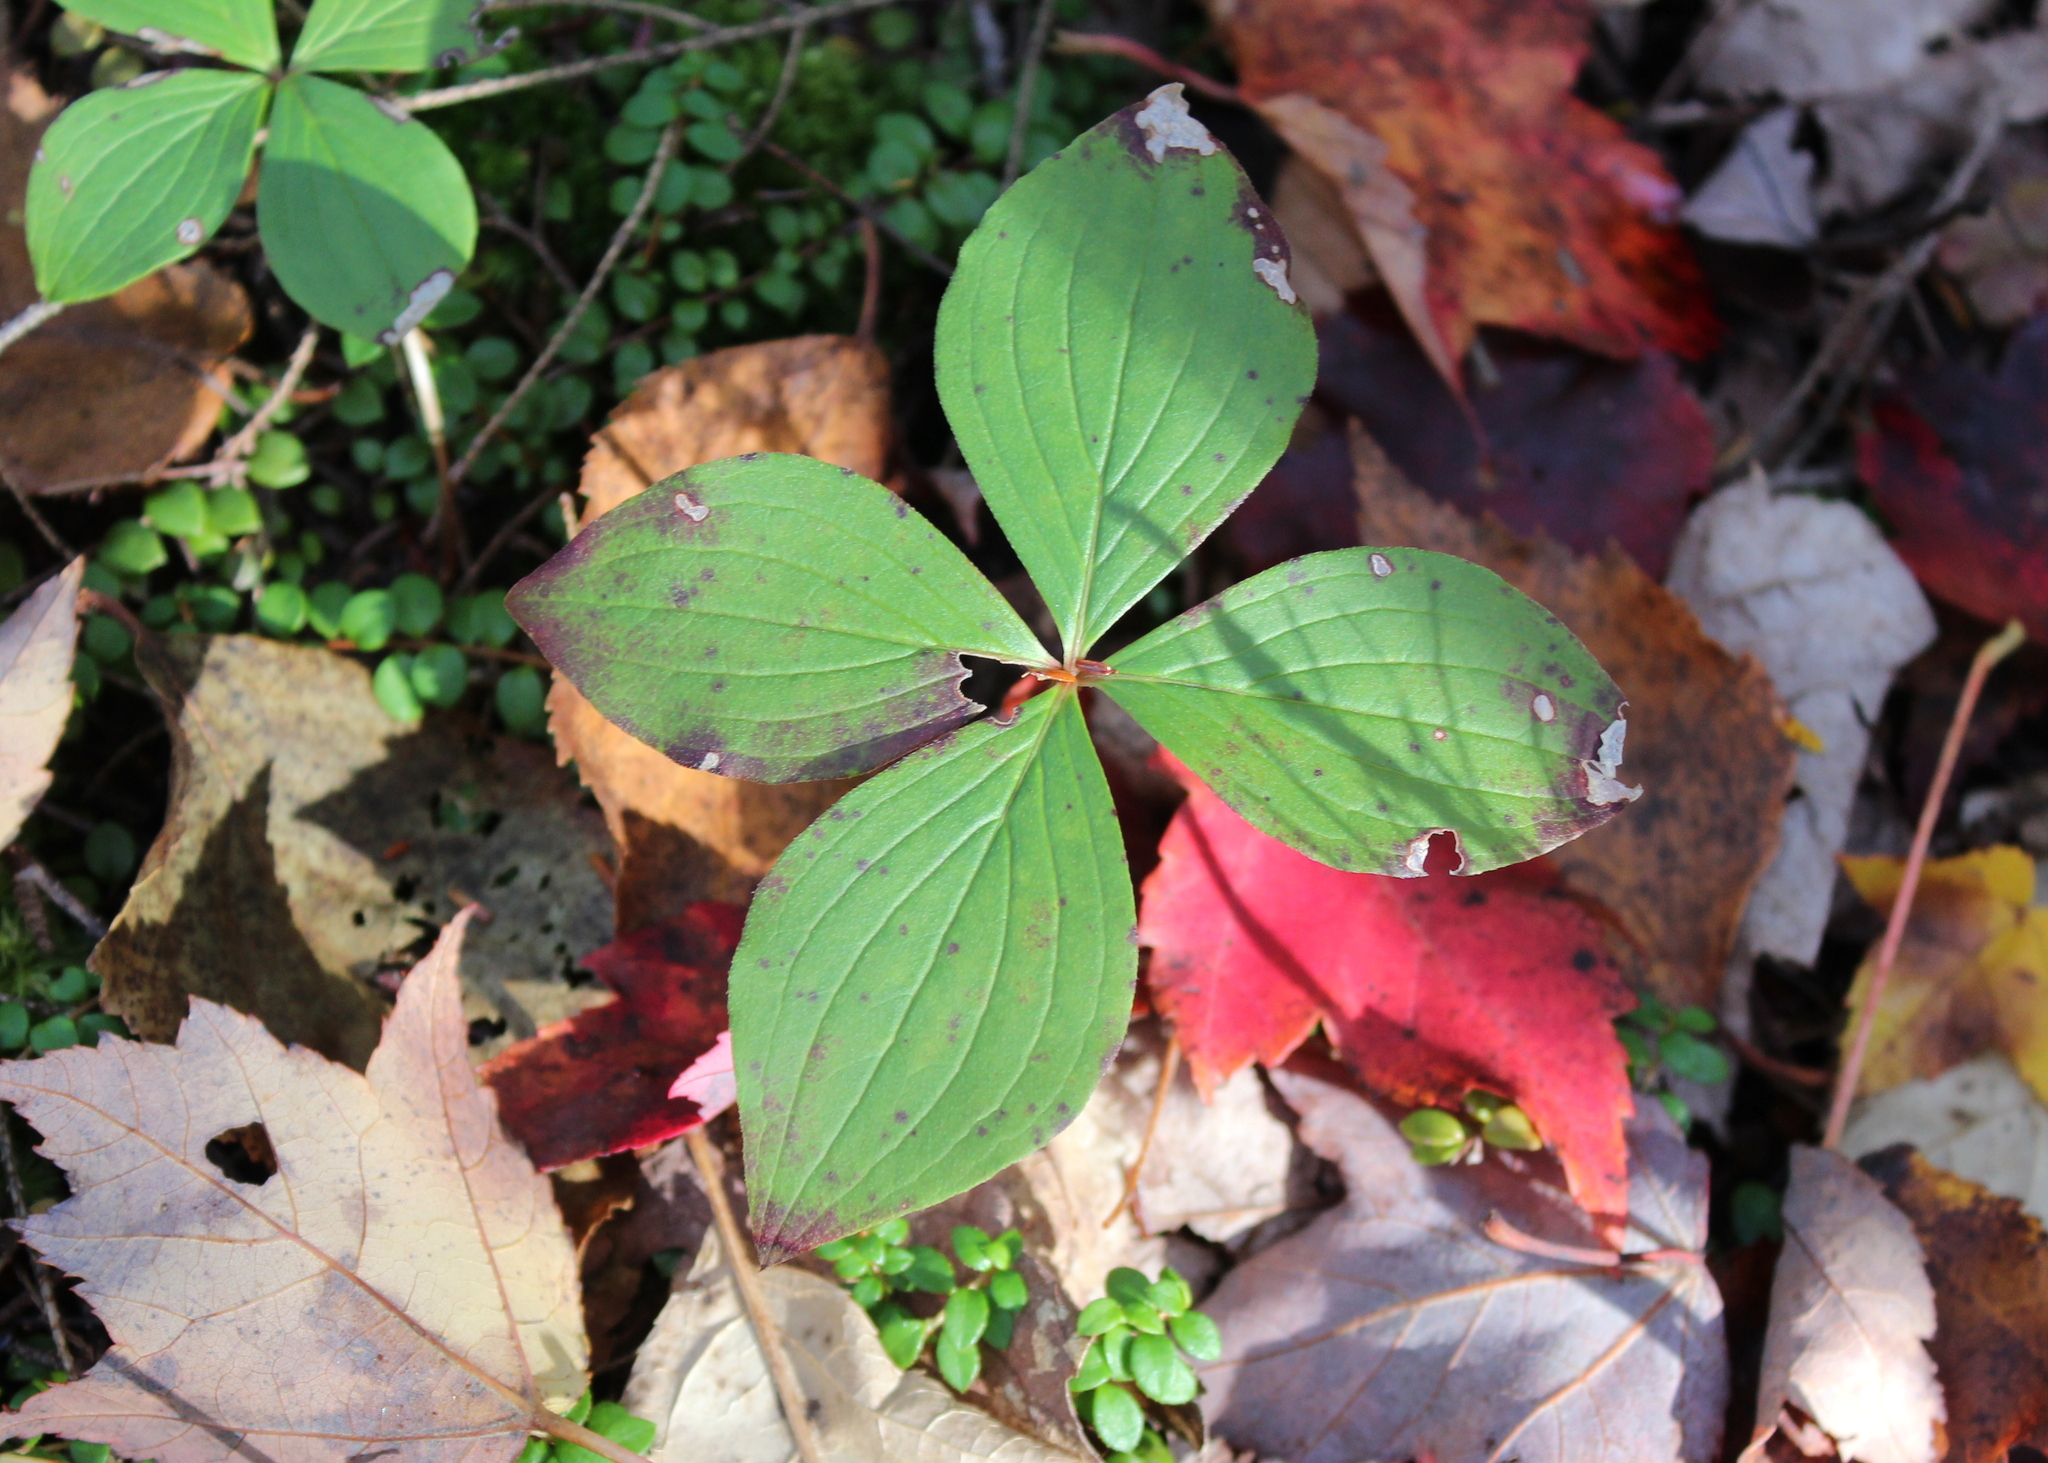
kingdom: Plantae
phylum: Tracheophyta
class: Magnoliopsida
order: Cornales
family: Cornaceae
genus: Cornus
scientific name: Cornus canadensis
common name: Creeping dogwood
